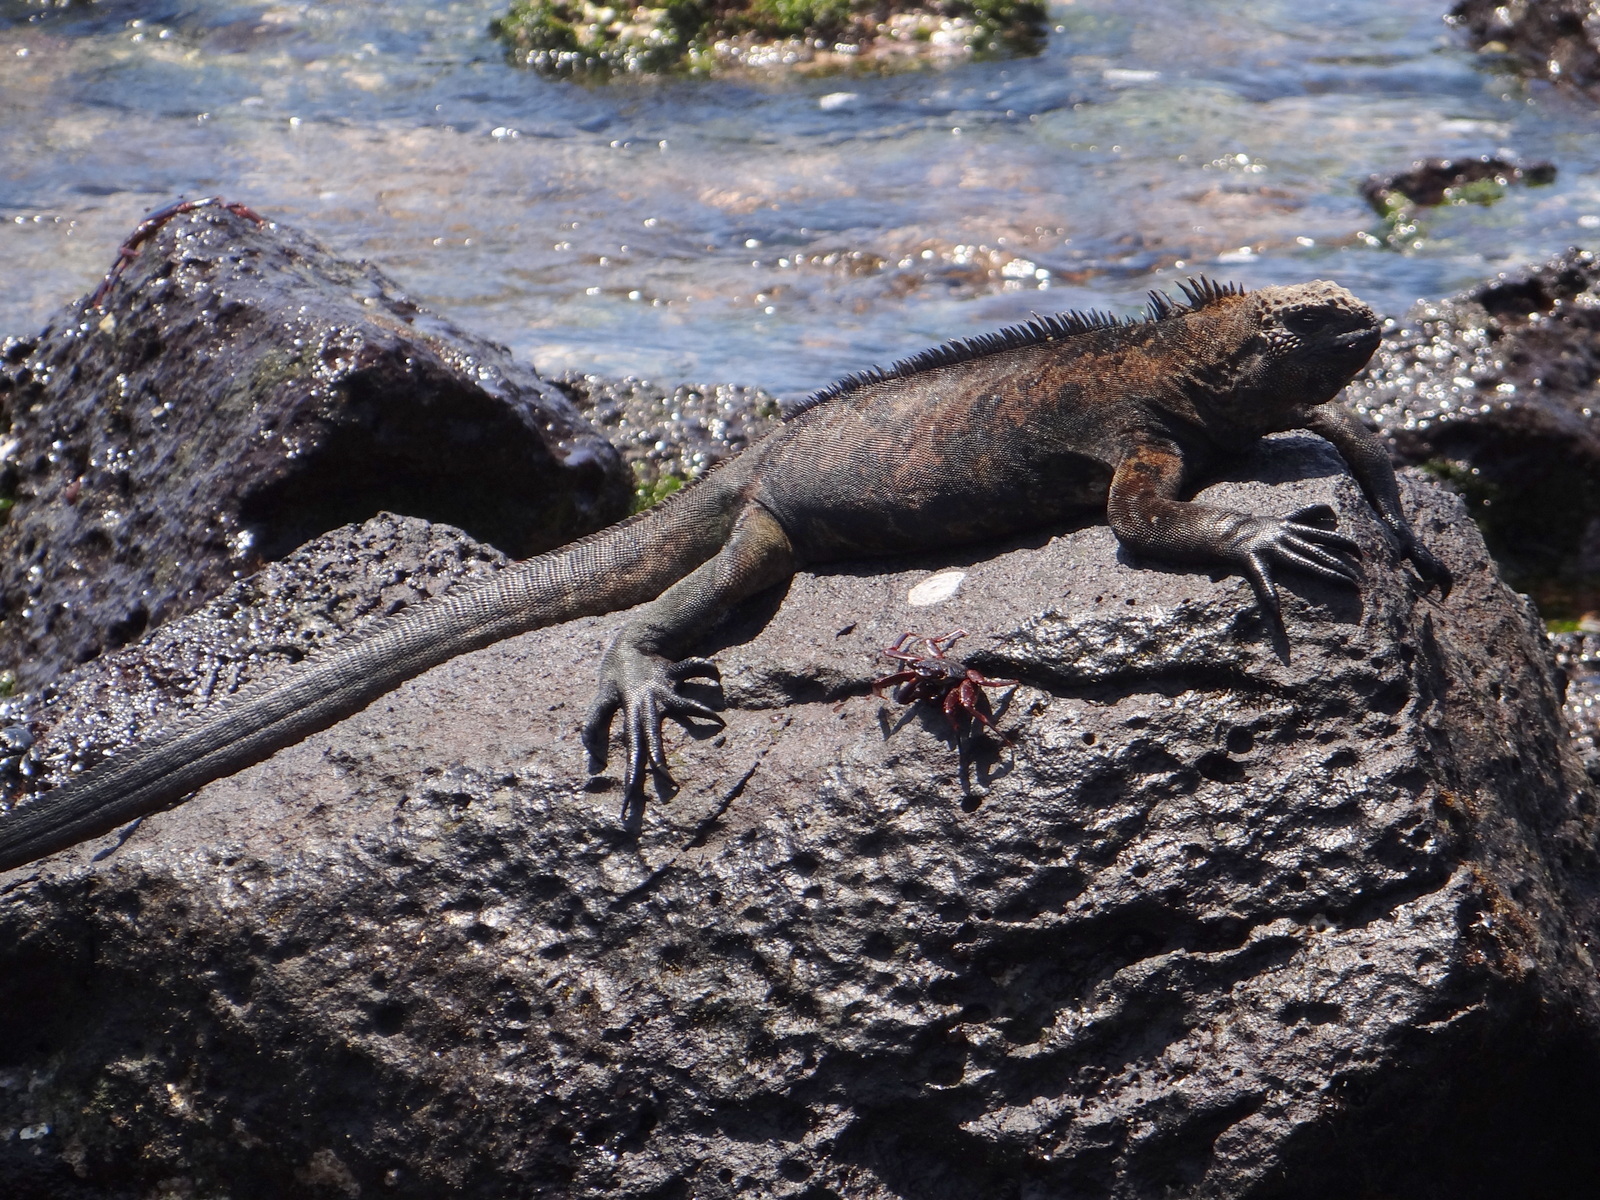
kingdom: Animalia
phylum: Chordata
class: Squamata
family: Iguanidae
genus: Amblyrhynchus
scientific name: Amblyrhynchus cristatus
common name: Marine iguana
